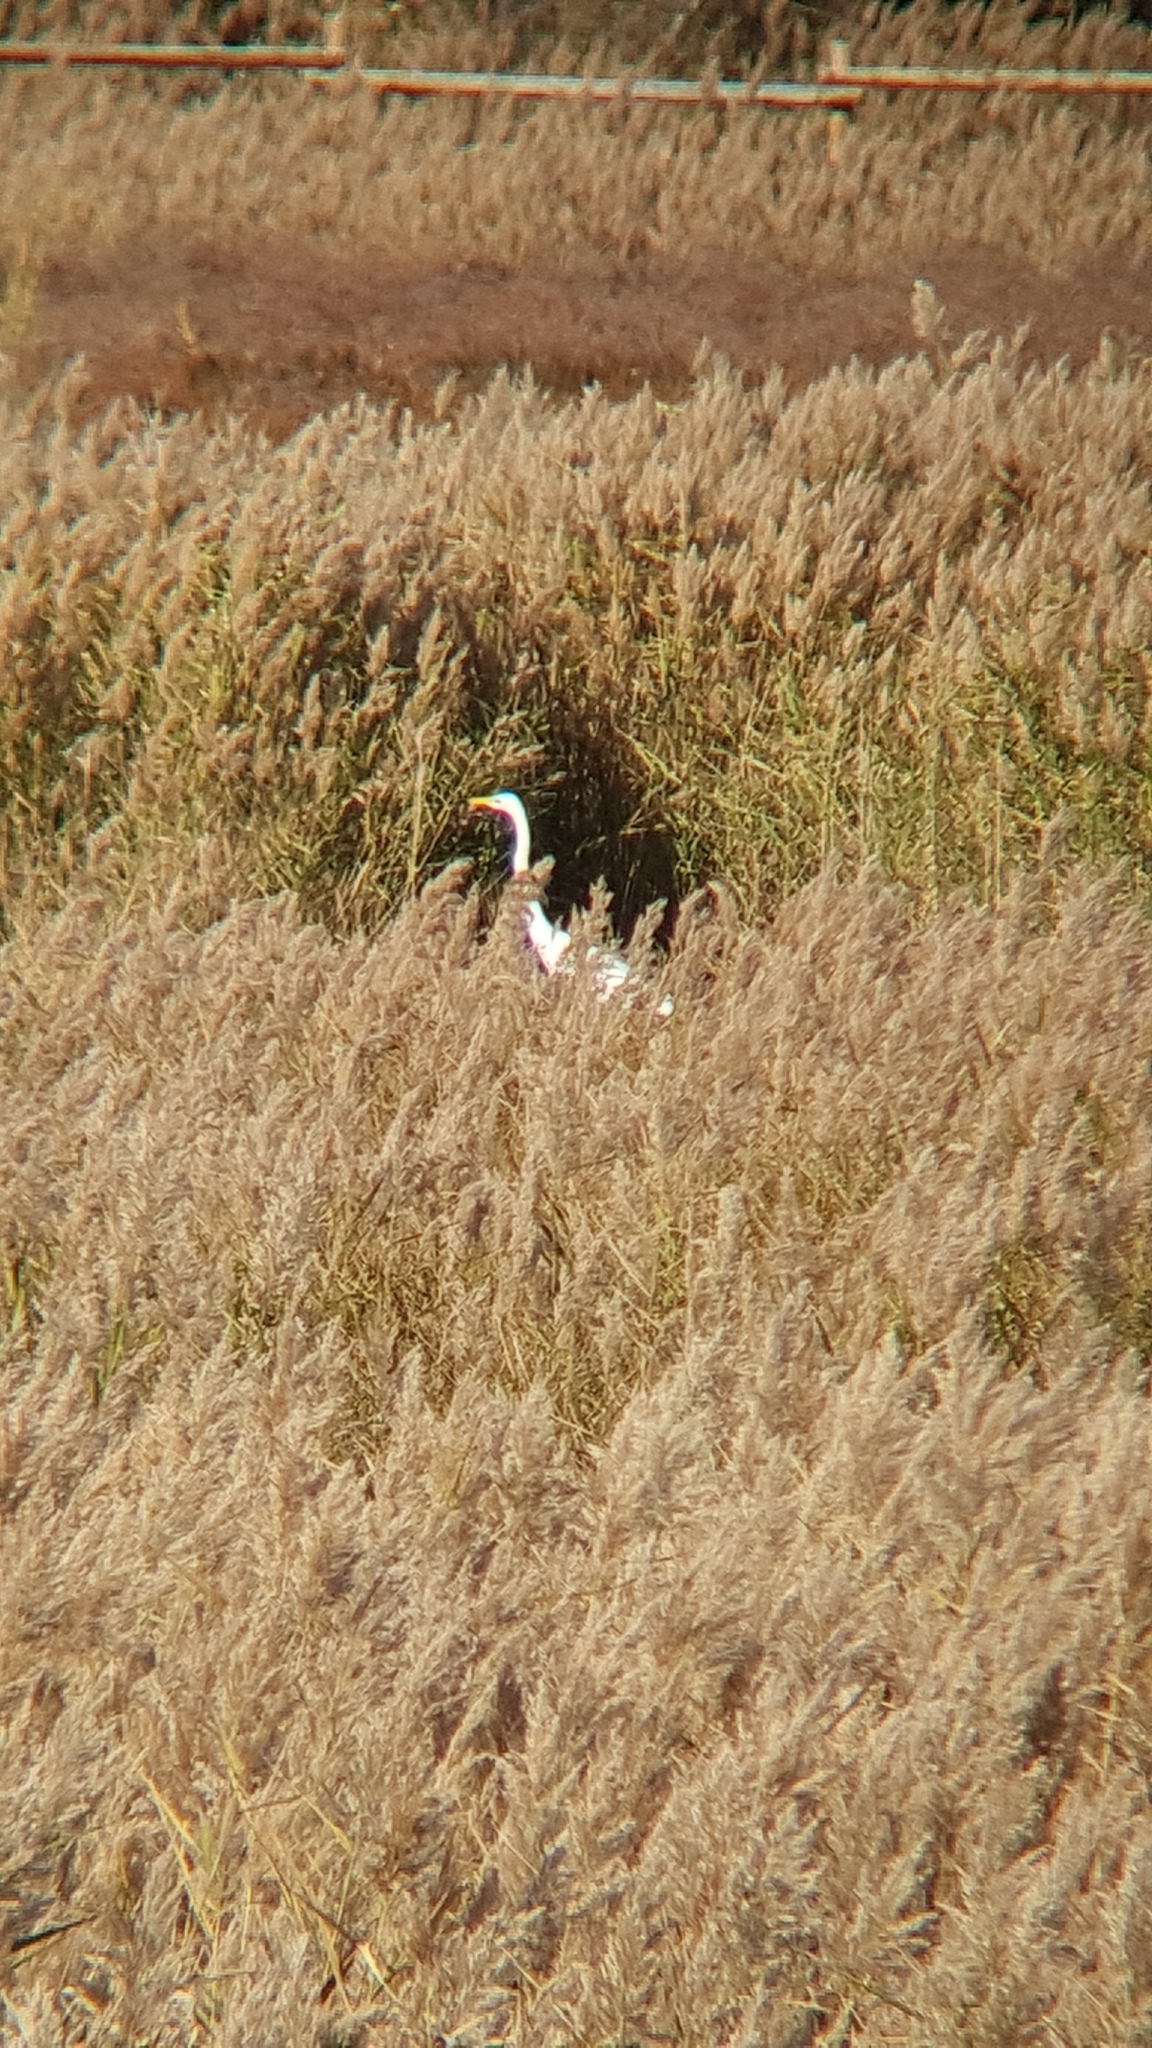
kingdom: Animalia
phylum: Chordata
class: Aves
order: Pelecaniformes
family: Ardeidae
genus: Ardea
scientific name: Ardea alba
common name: Great egret
